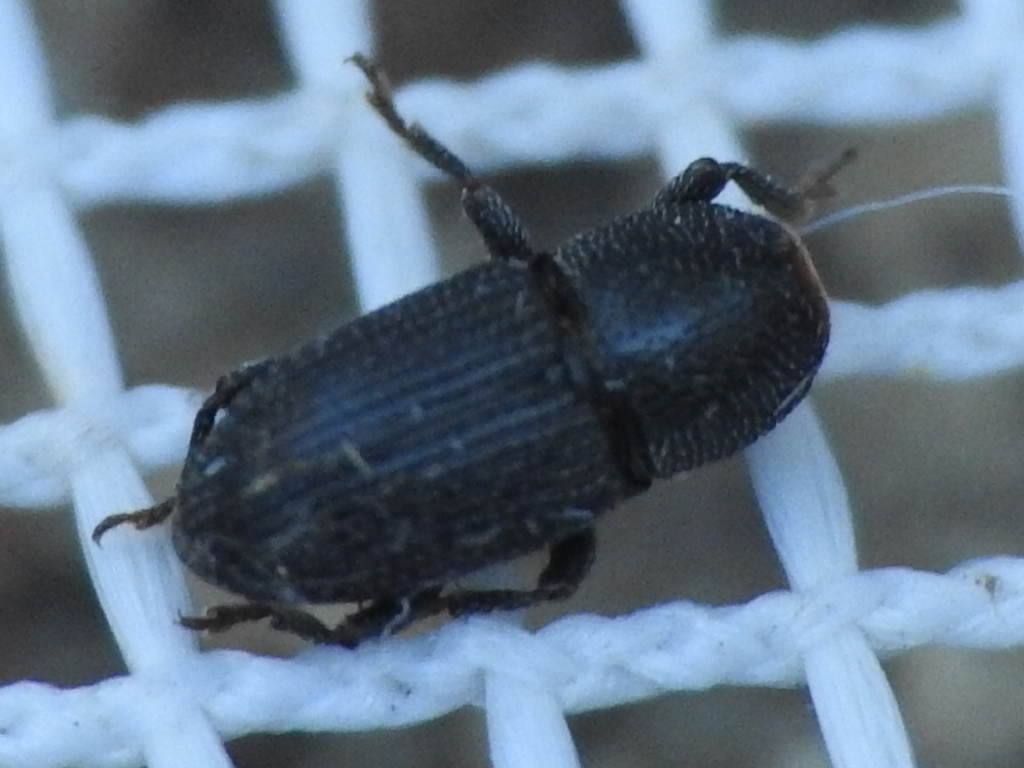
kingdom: Animalia
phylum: Arthropoda
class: Insecta
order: Coleoptera
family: Curculionidae
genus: Apinocis
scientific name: Apinocis
